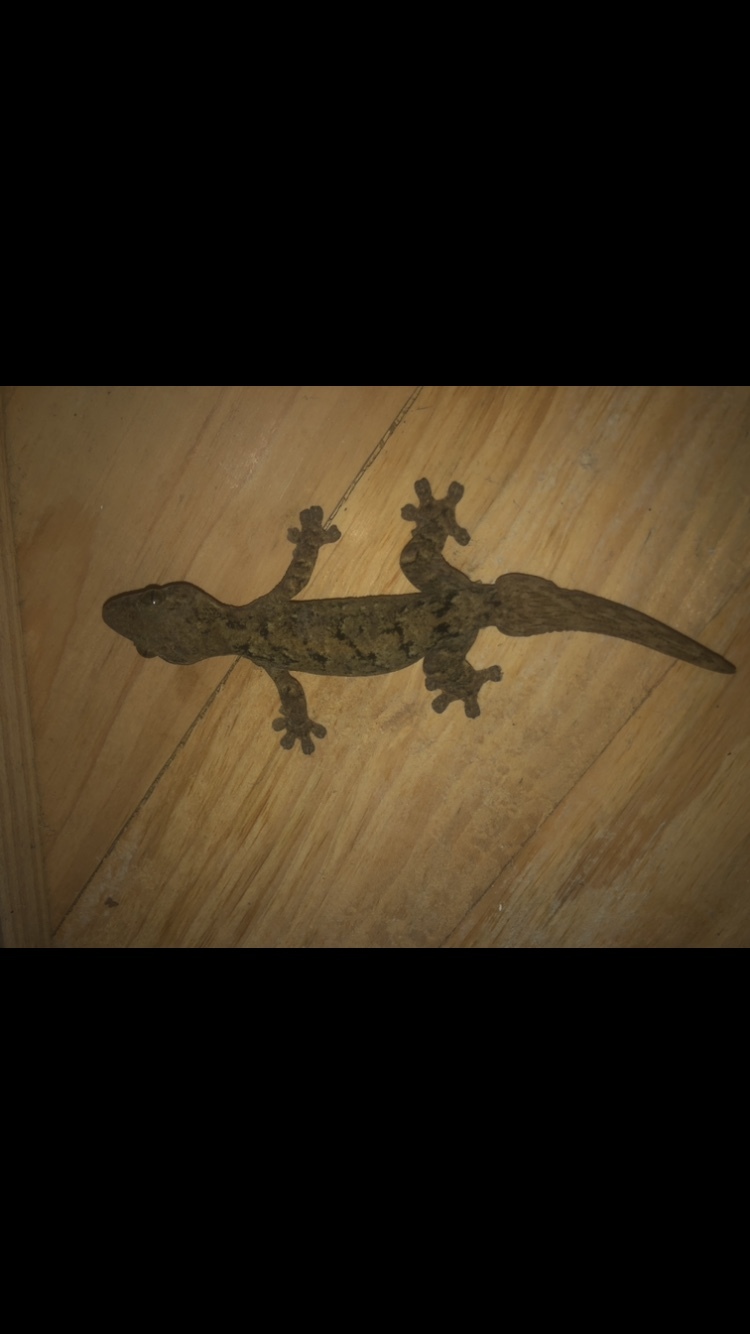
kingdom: Animalia
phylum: Chordata
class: Squamata
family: Phyllodactylidae
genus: Thecadactylus
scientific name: Thecadactylus rapicauda
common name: Turnip-tailed gecko
